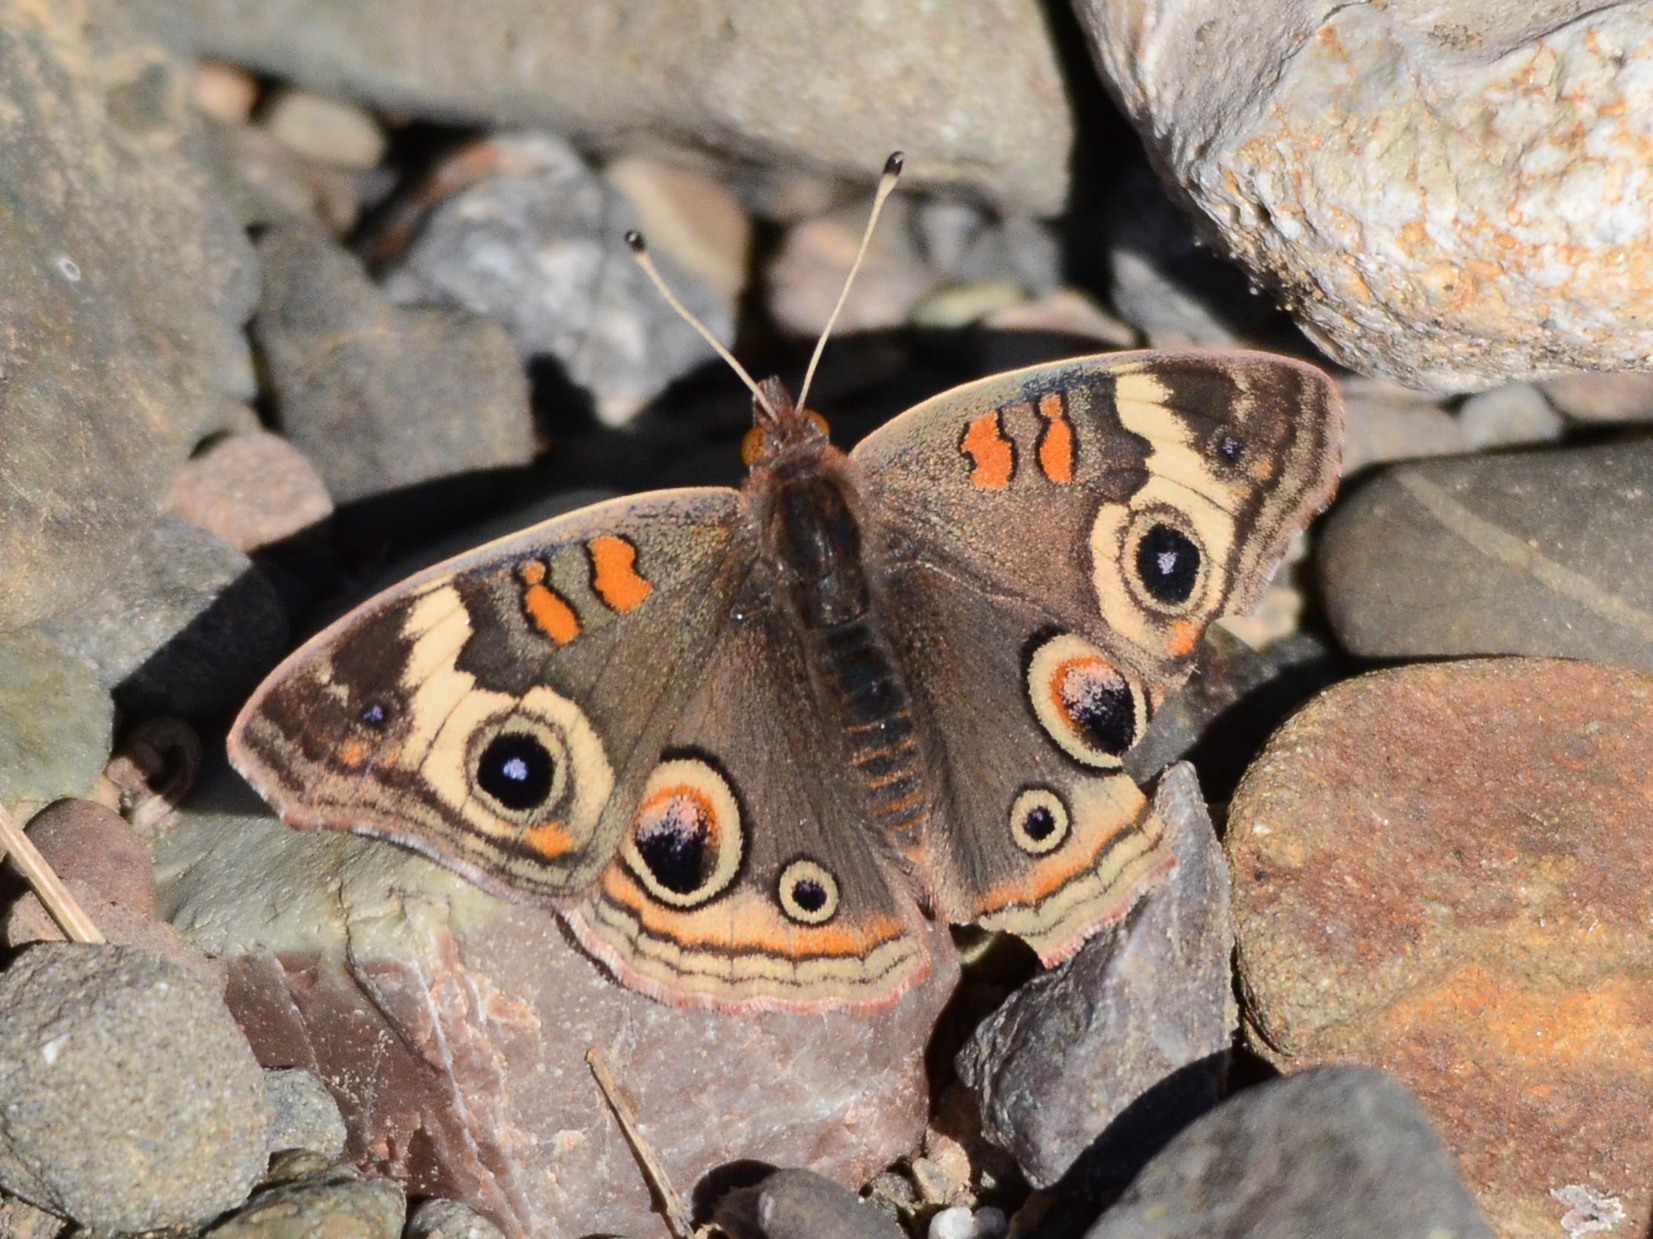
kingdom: Animalia
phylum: Arthropoda
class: Insecta
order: Lepidoptera
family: Nymphalidae
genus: Junonia
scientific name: Junonia grisea
